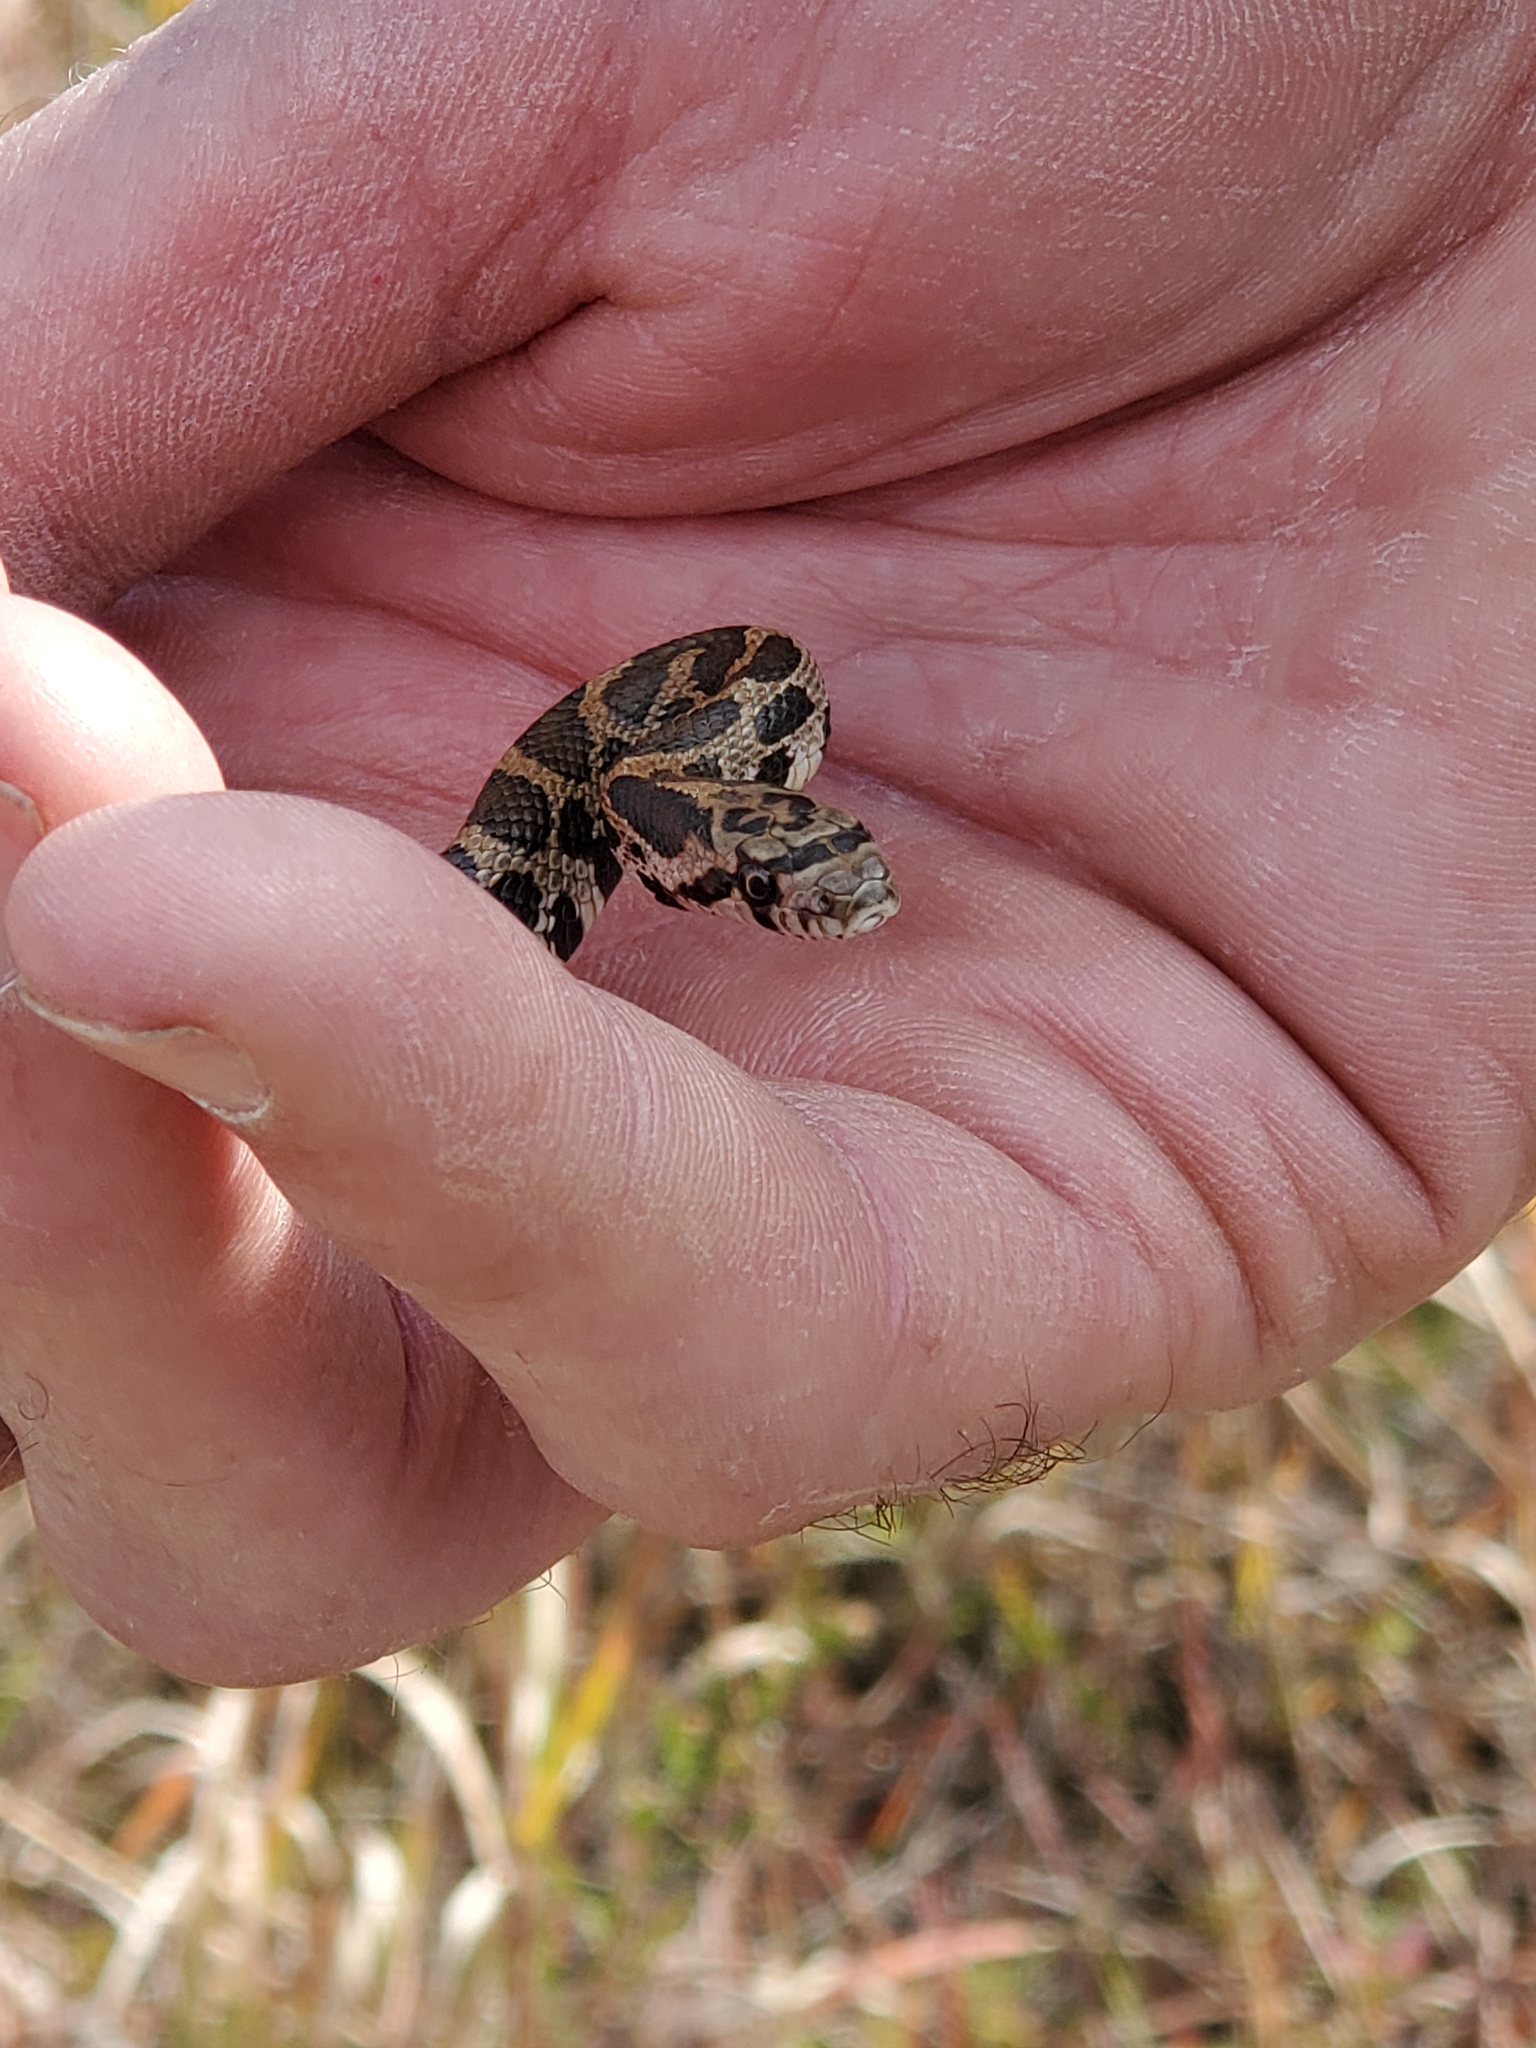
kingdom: Animalia
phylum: Chordata
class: Squamata
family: Colubridae
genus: Pantherophis
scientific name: Pantherophis vulpinus
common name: Eastern fox snake
